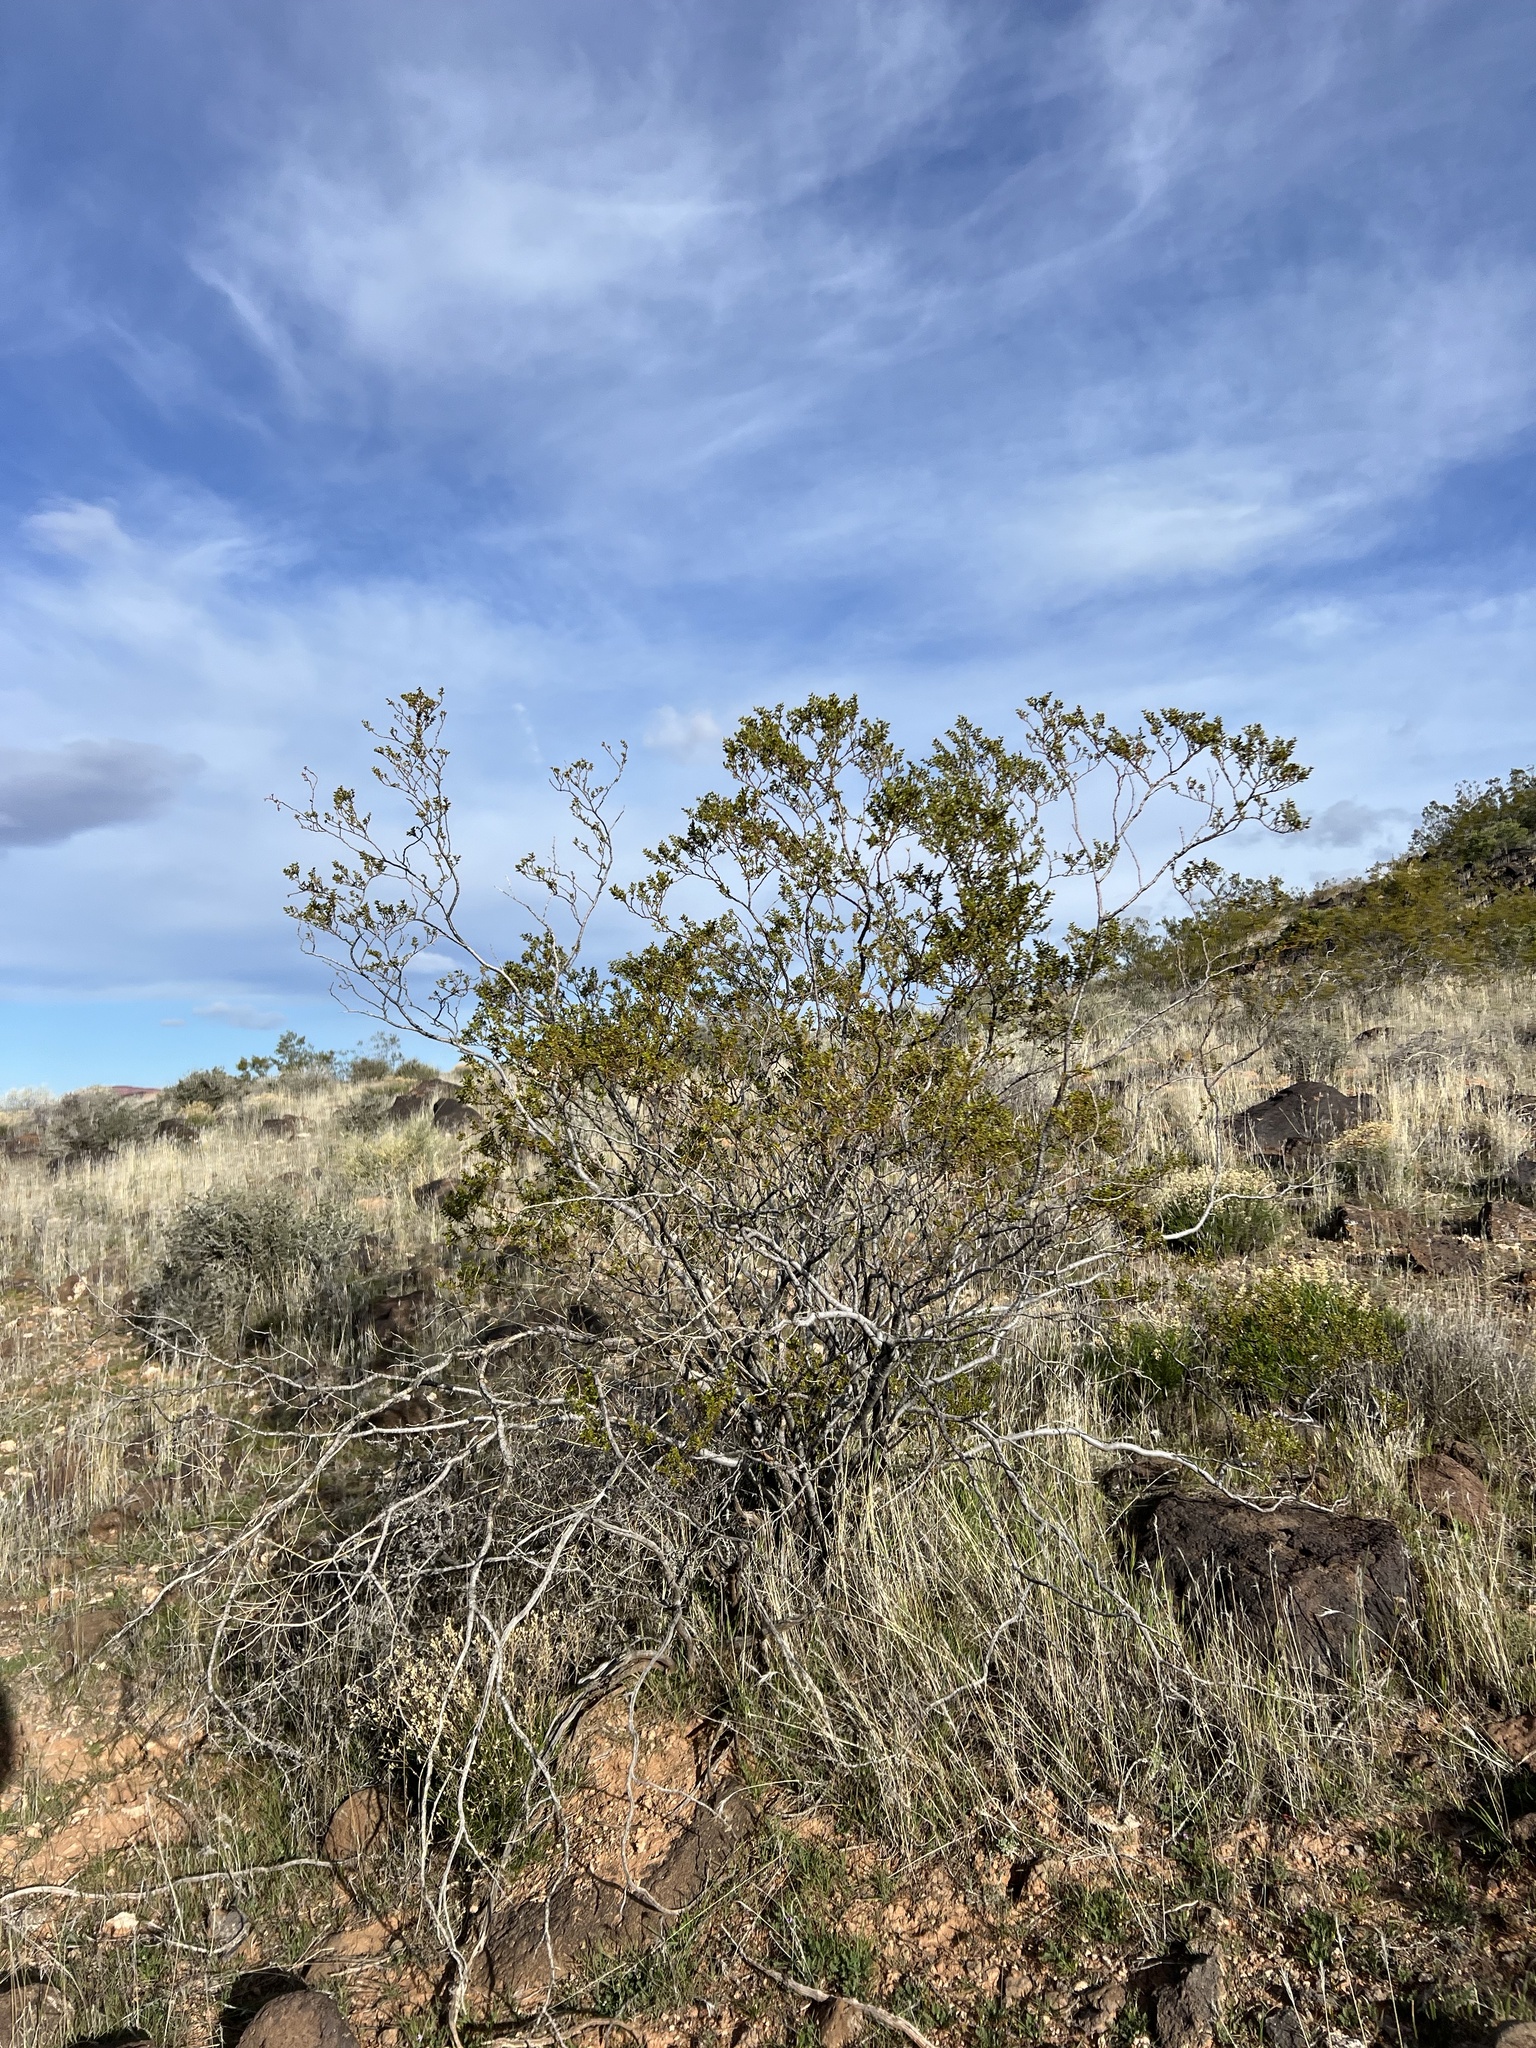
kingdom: Plantae
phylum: Tracheophyta
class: Magnoliopsida
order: Zygophyllales
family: Zygophyllaceae
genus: Larrea
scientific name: Larrea tridentata
